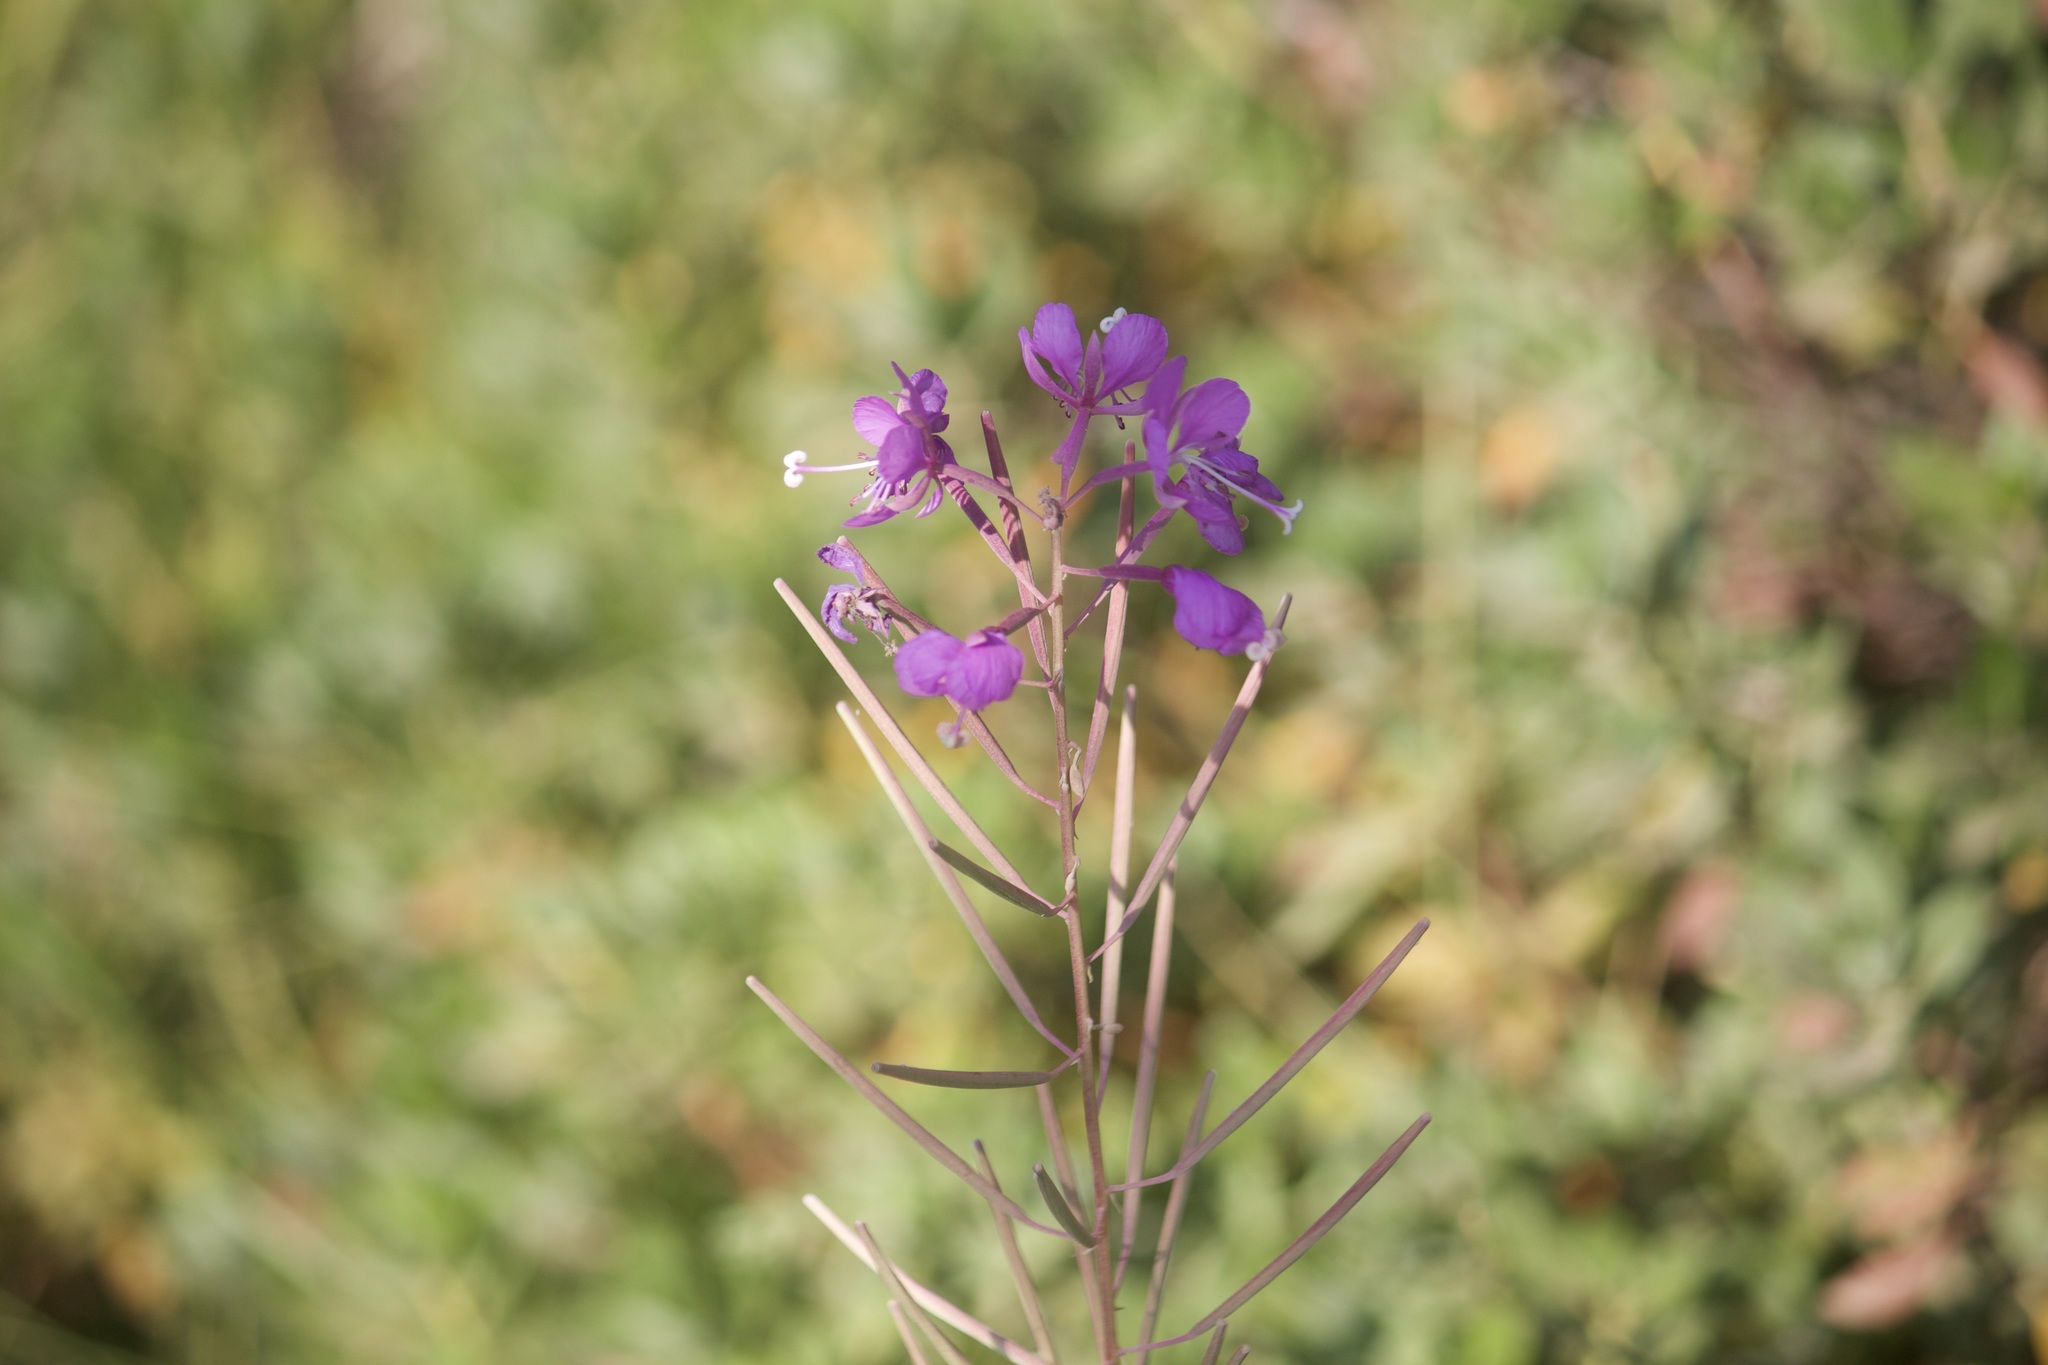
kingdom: Plantae
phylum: Tracheophyta
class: Magnoliopsida
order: Myrtales
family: Onagraceae
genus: Chamaenerion
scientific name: Chamaenerion angustifolium
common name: Fireweed
